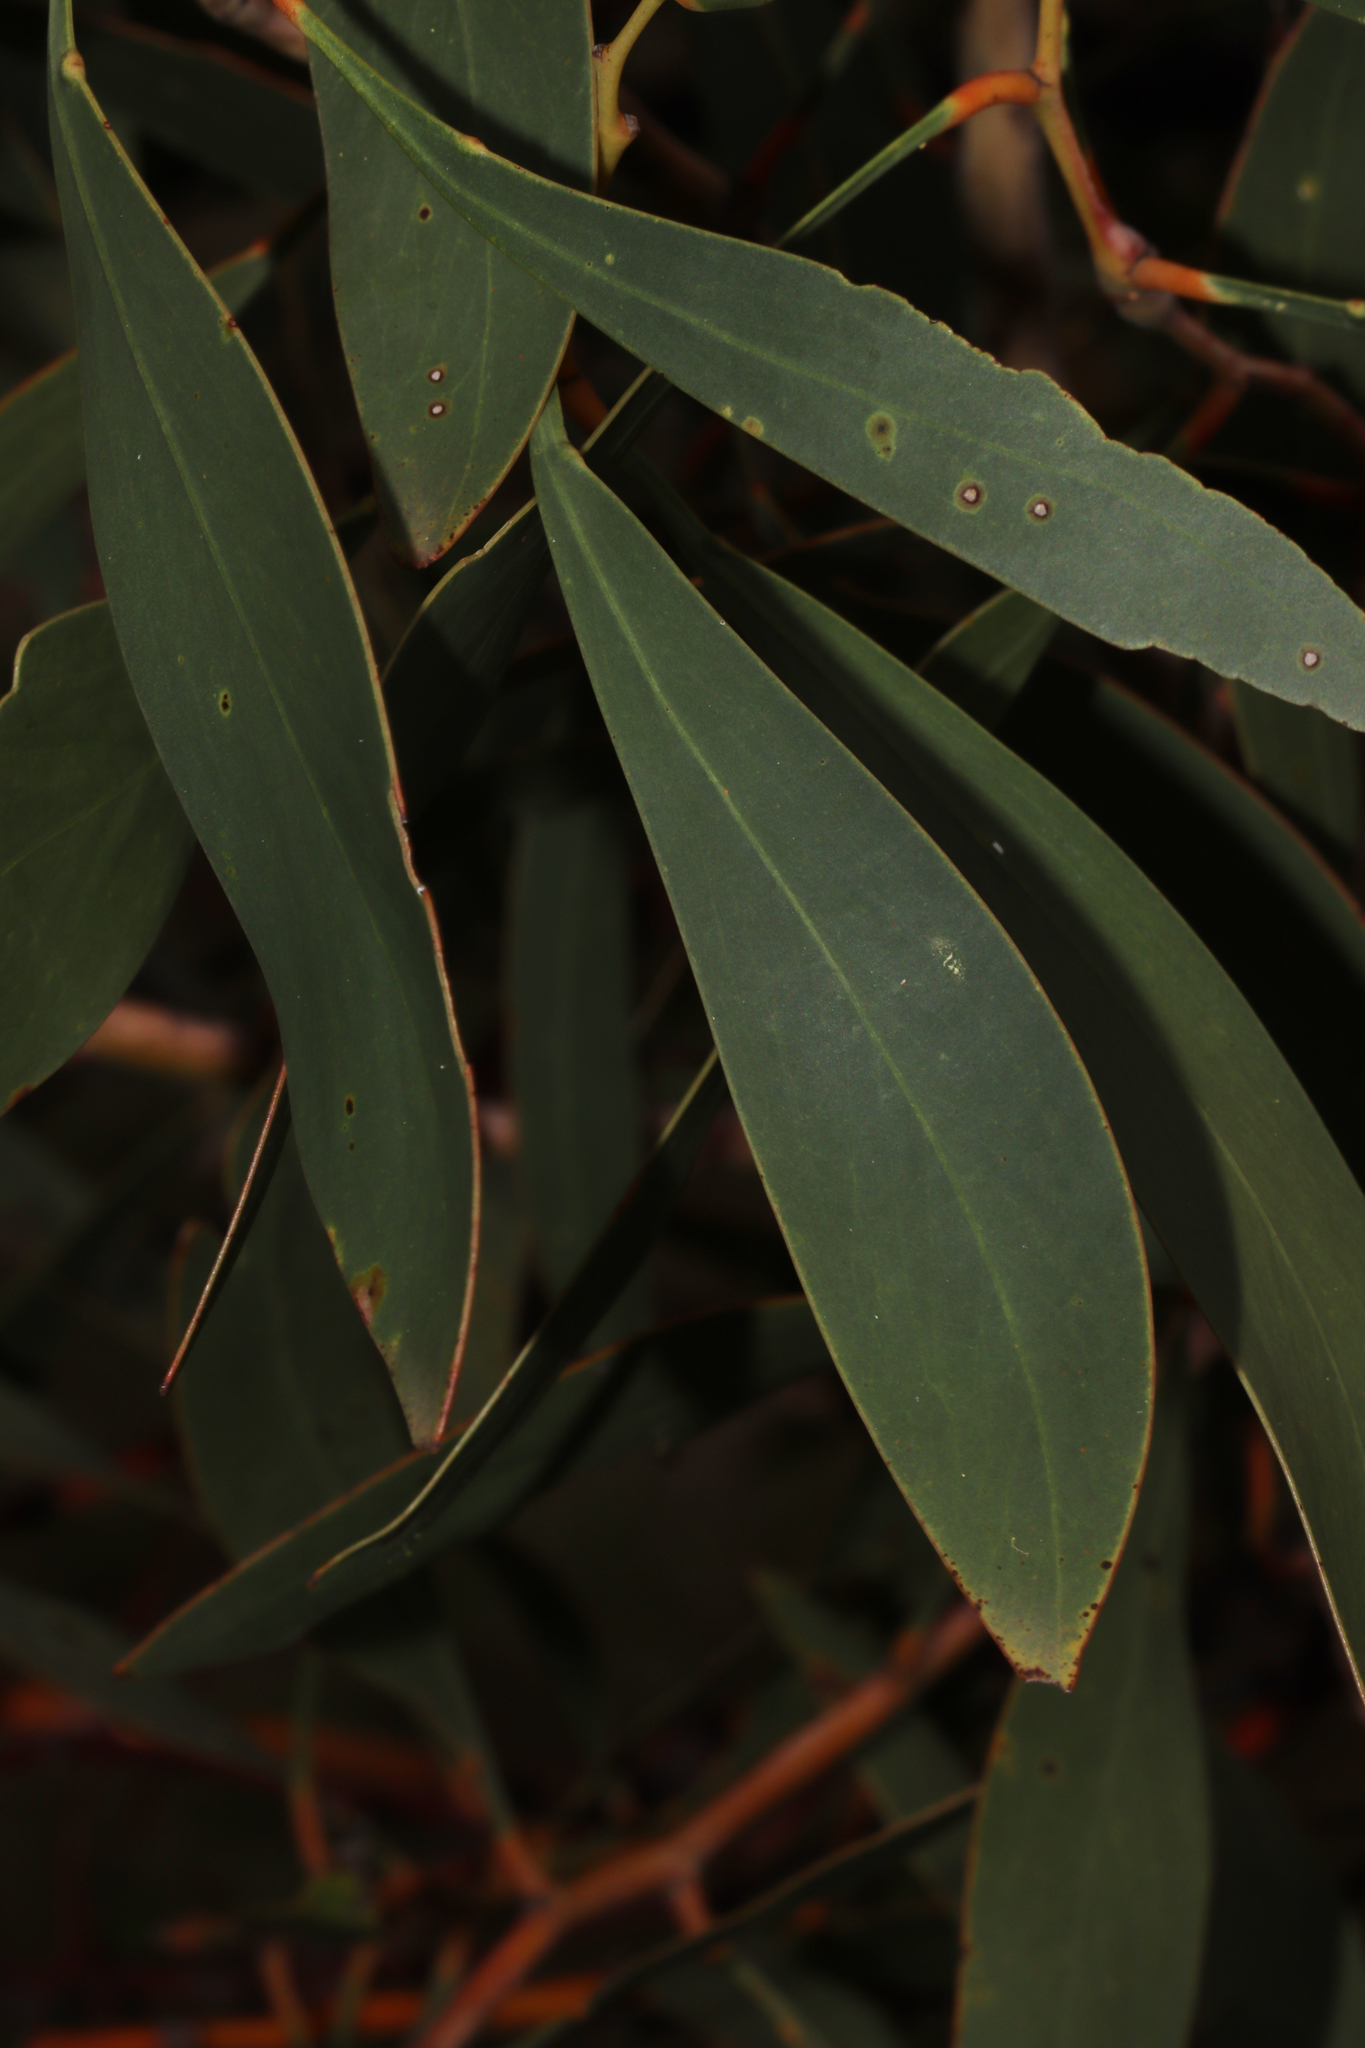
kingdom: Plantae
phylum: Tracheophyta
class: Magnoliopsida
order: Fabales
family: Fabaceae
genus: Acacia
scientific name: Acacia pycnantha
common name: Golden wattle
